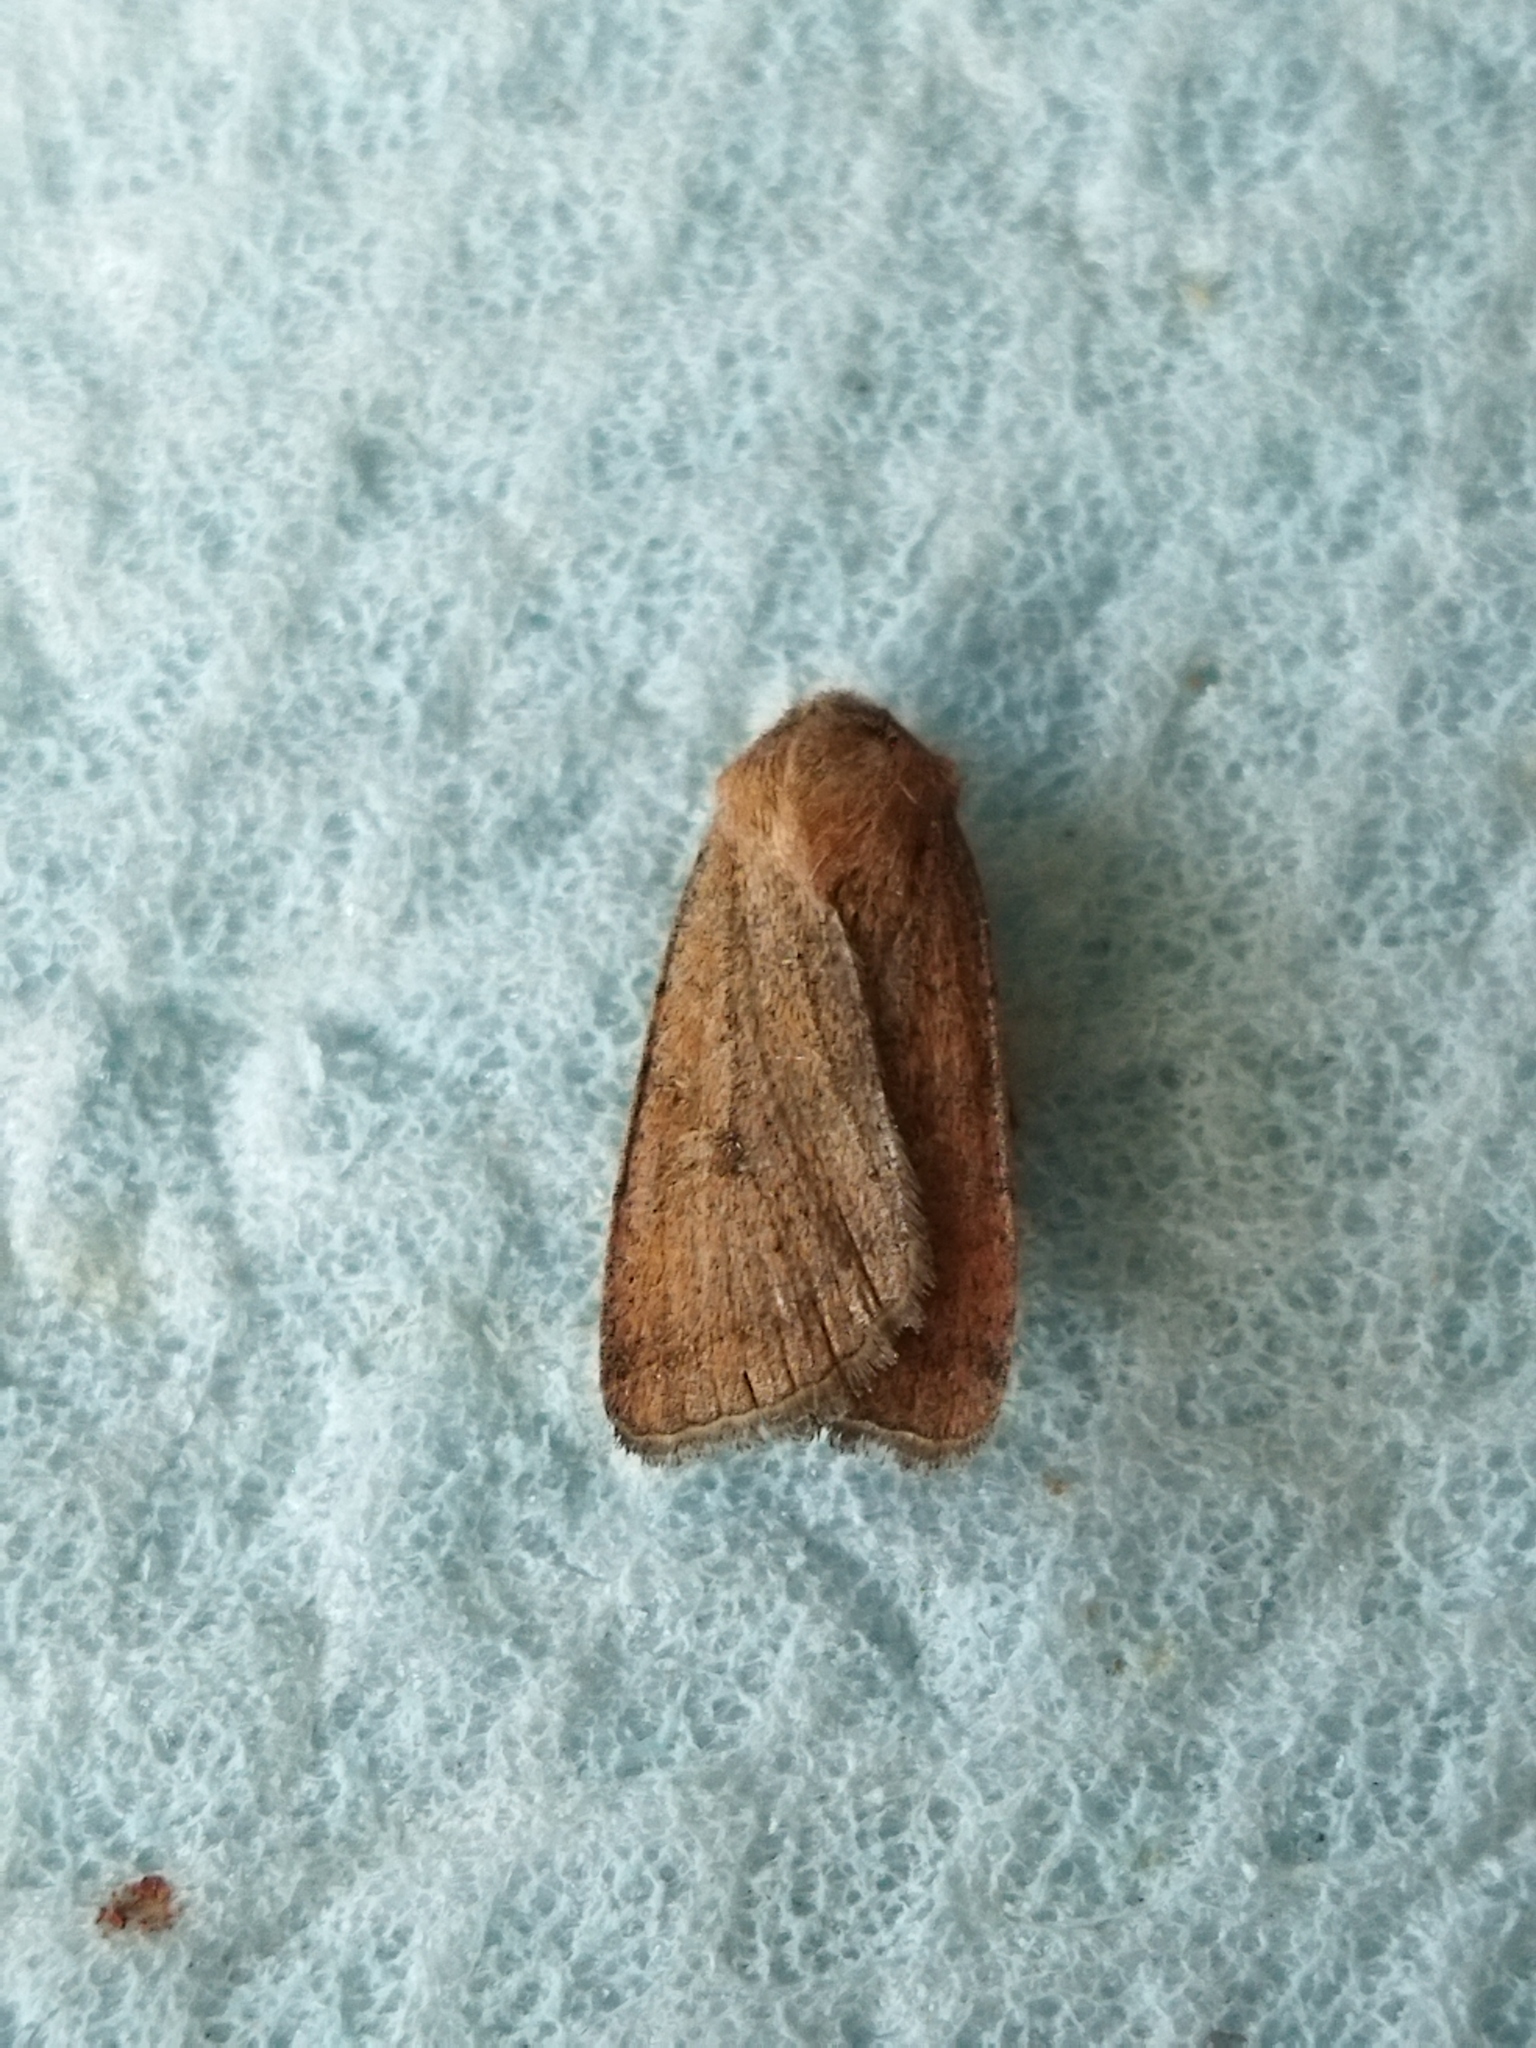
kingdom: Animalia
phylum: Arthropoda
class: Insecta
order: Lepidoptera
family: Noctuidae
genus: Xestia
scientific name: Xestia xanthographa
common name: Square-spot rustic
